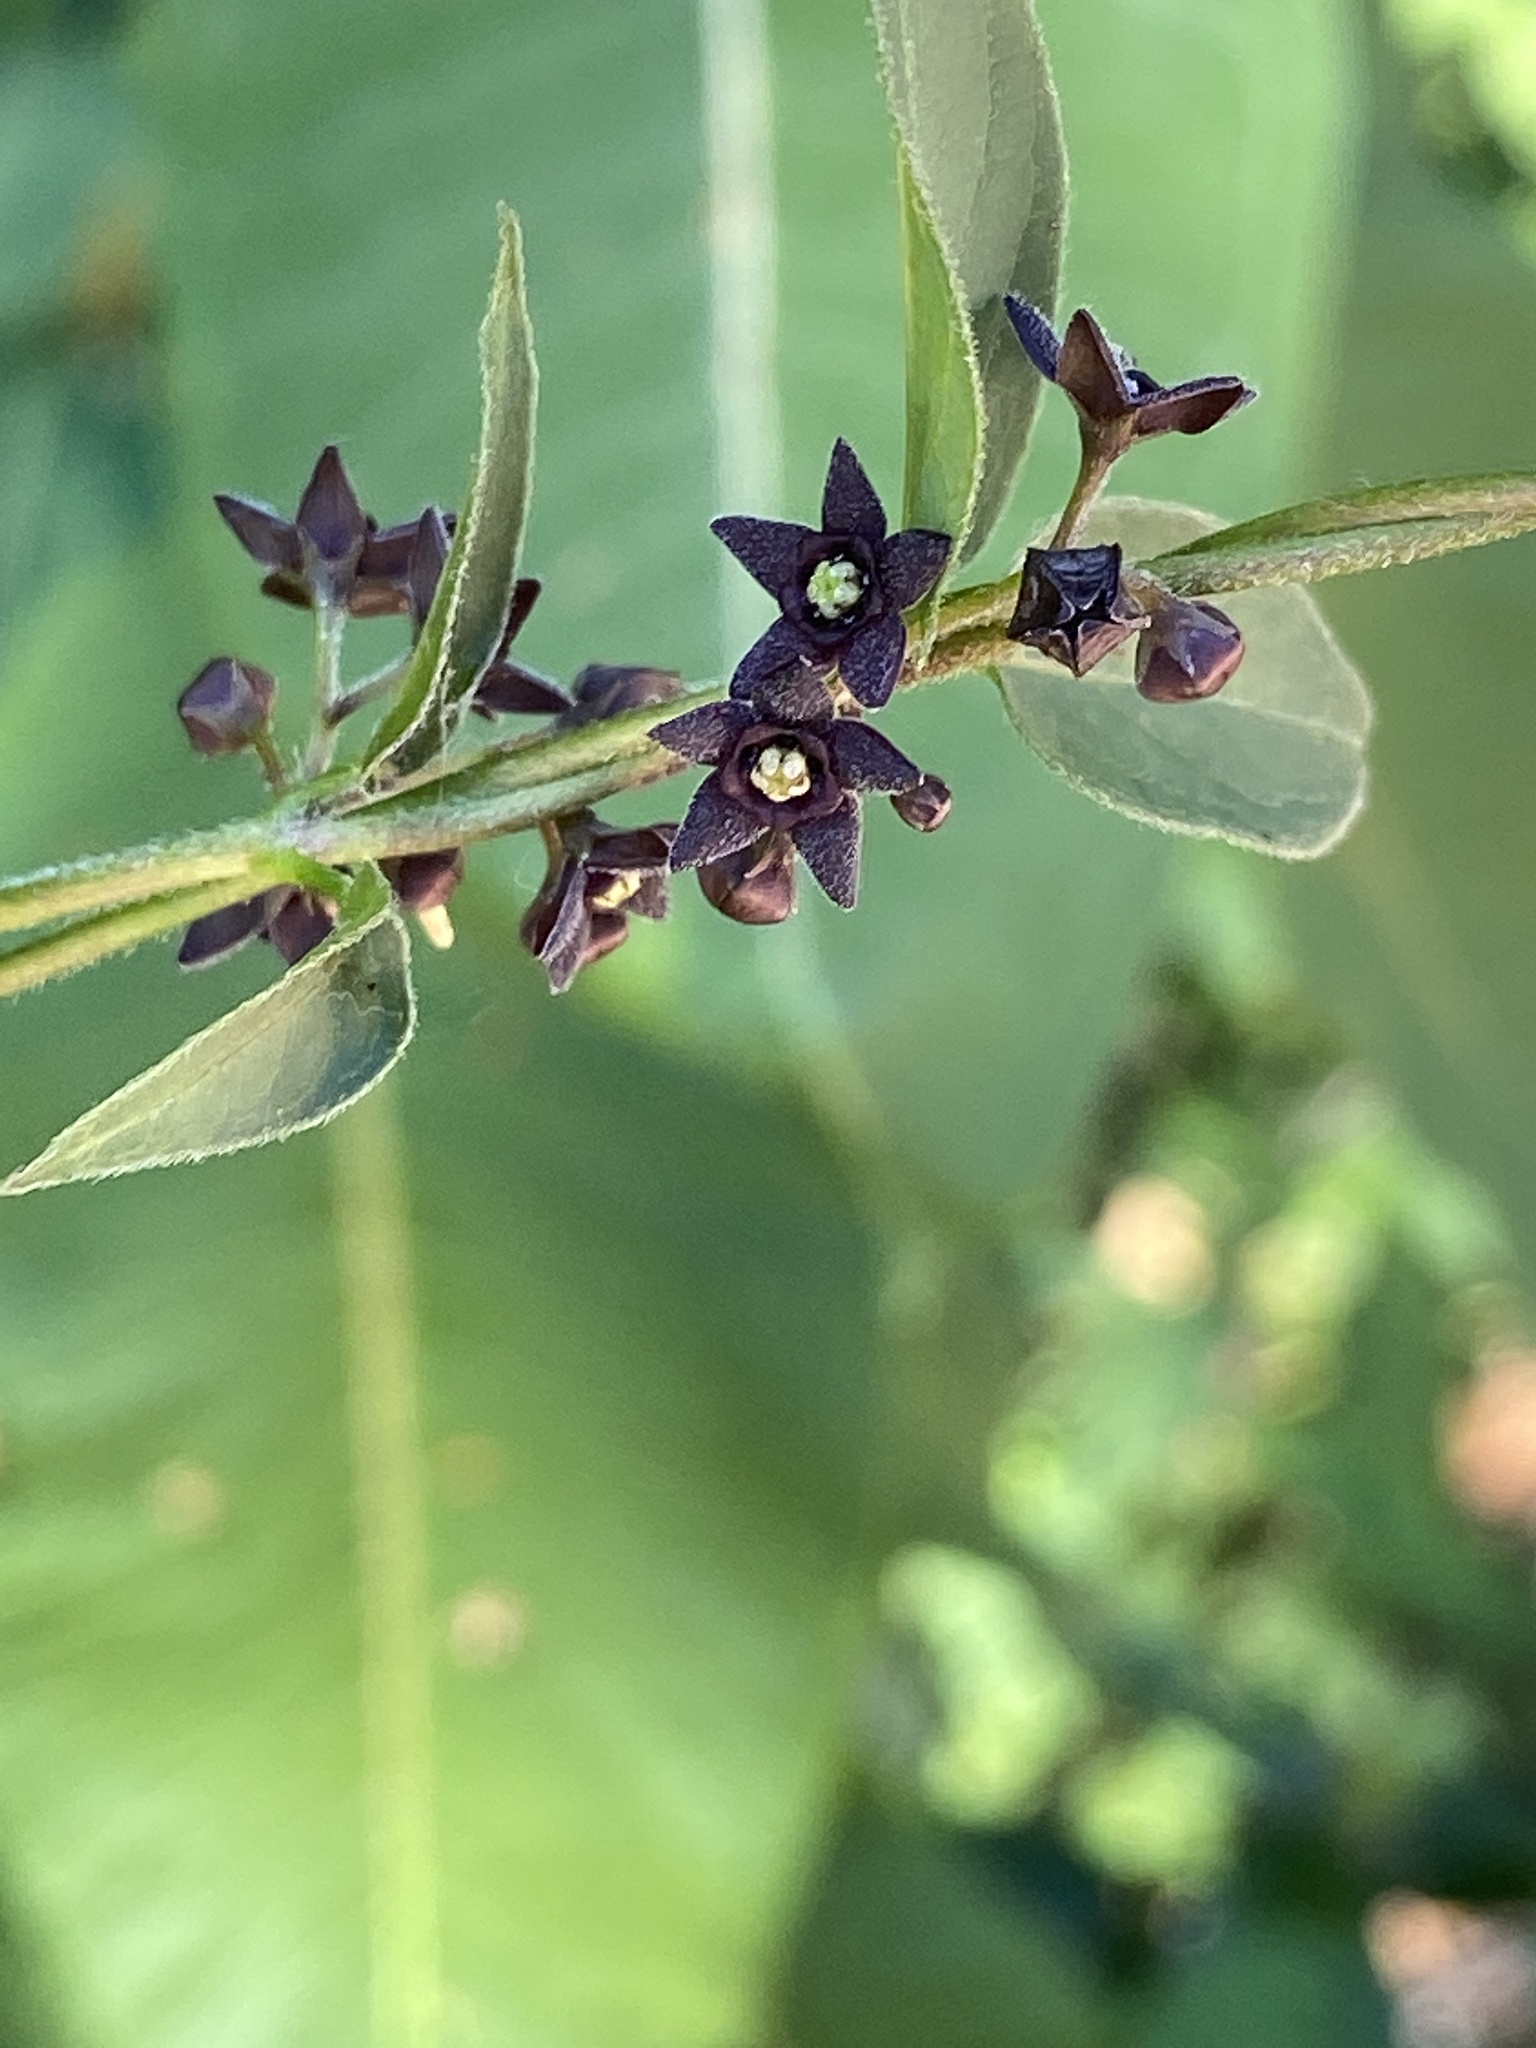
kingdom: Plantae
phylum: Tracheophyta
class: Magnoliopsida
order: Gentianales
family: Apocynaceae
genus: Vincetoxicum
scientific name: Vincetoxicum nigrum
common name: Black swallow-wort
